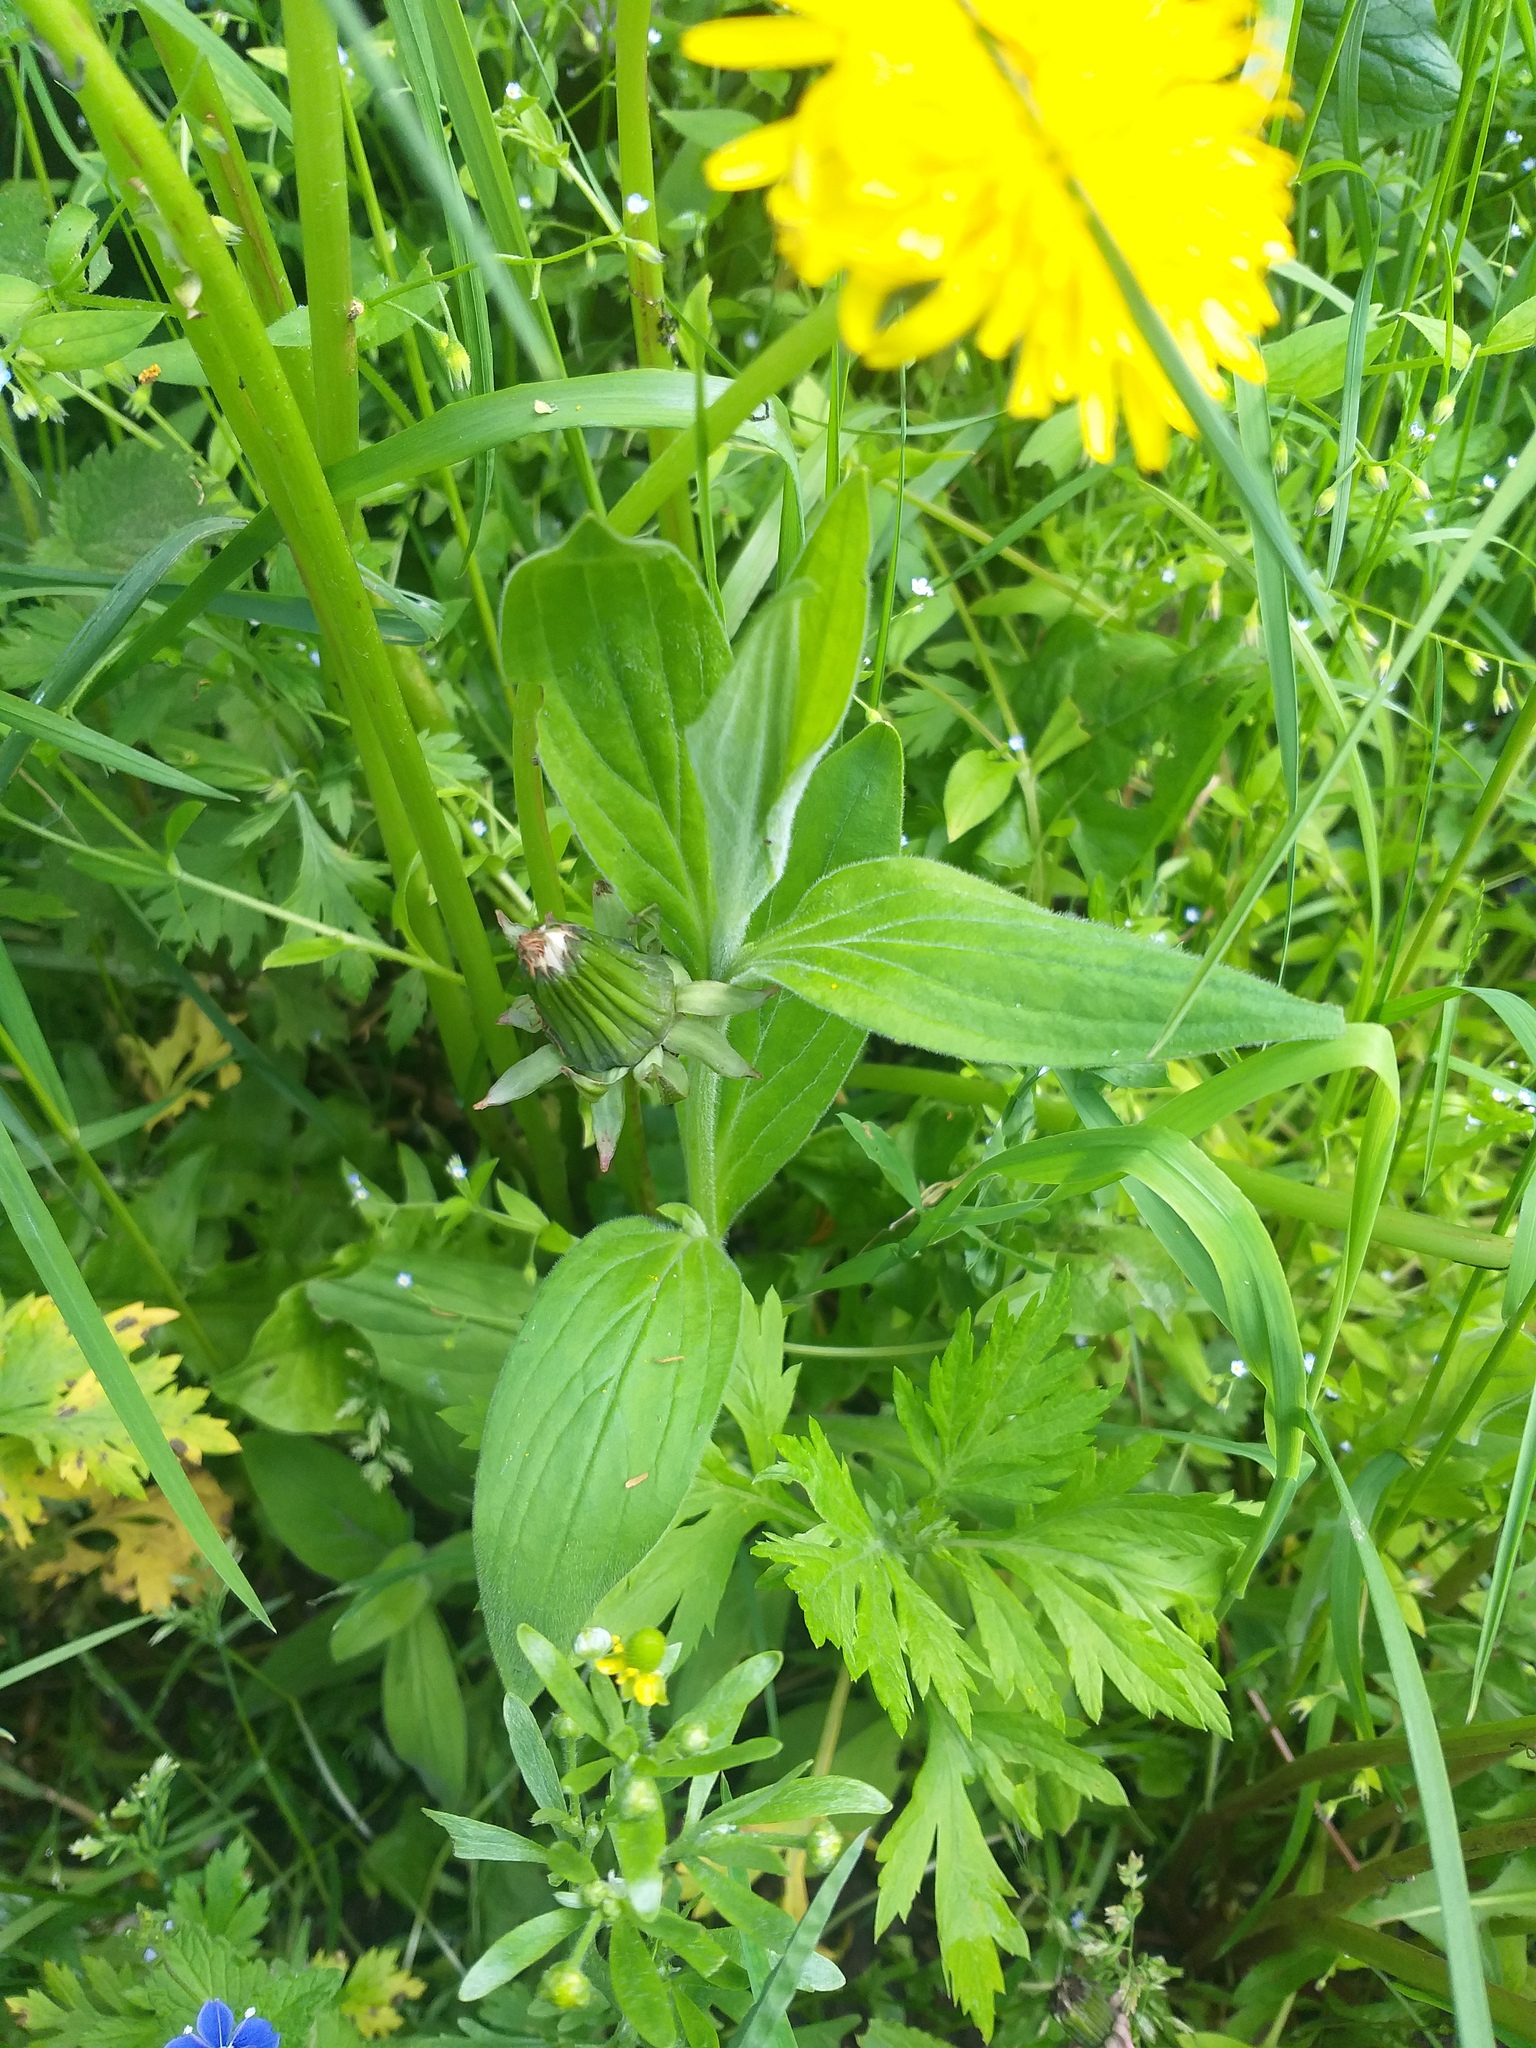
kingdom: Plantae
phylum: Tracheophyta
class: Magnoliopsida
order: Caryophyllales
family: Caryophyllaceae
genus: Silene
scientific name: Silene latifolia
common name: White campion
